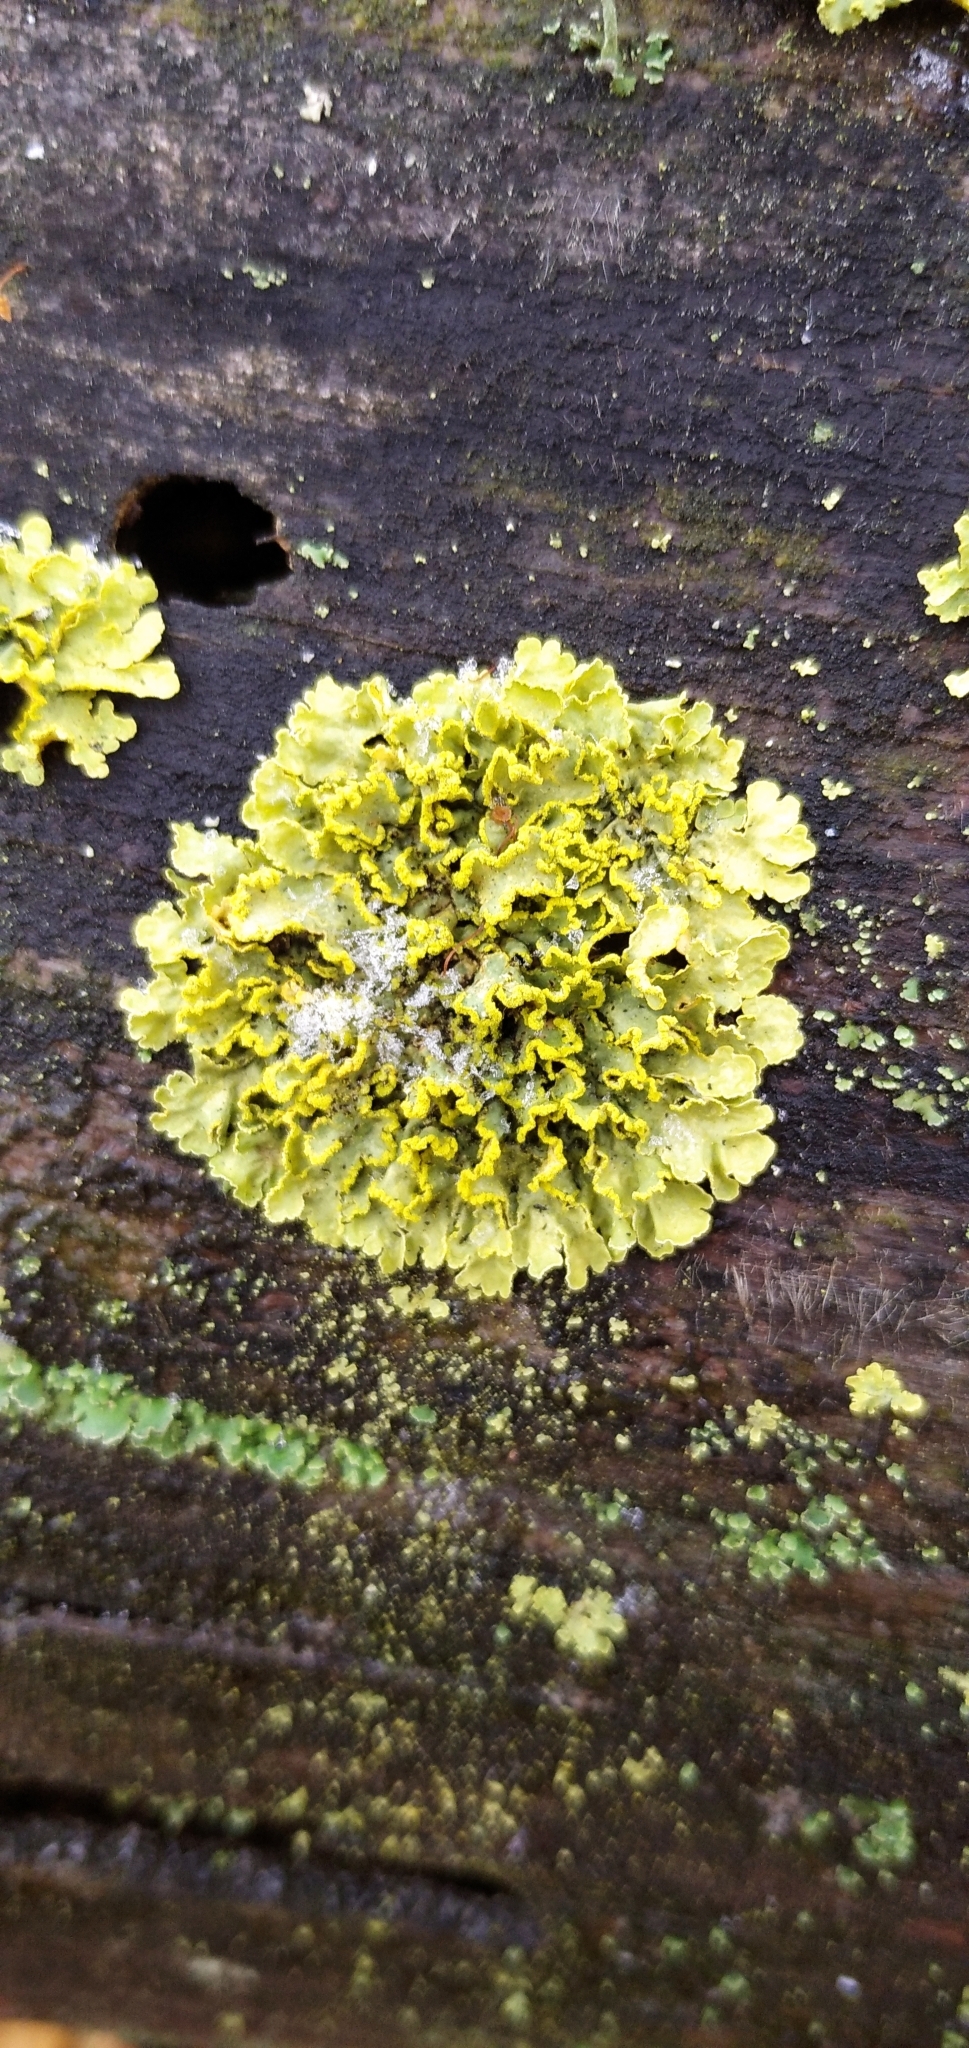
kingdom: Fungi
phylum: Ascomycota
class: Lecanoromycetes
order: Lecanorales
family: Parmeliaceae
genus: Vulpicida
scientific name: Vulpicida pinastri
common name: Powdered sunshine lichen
